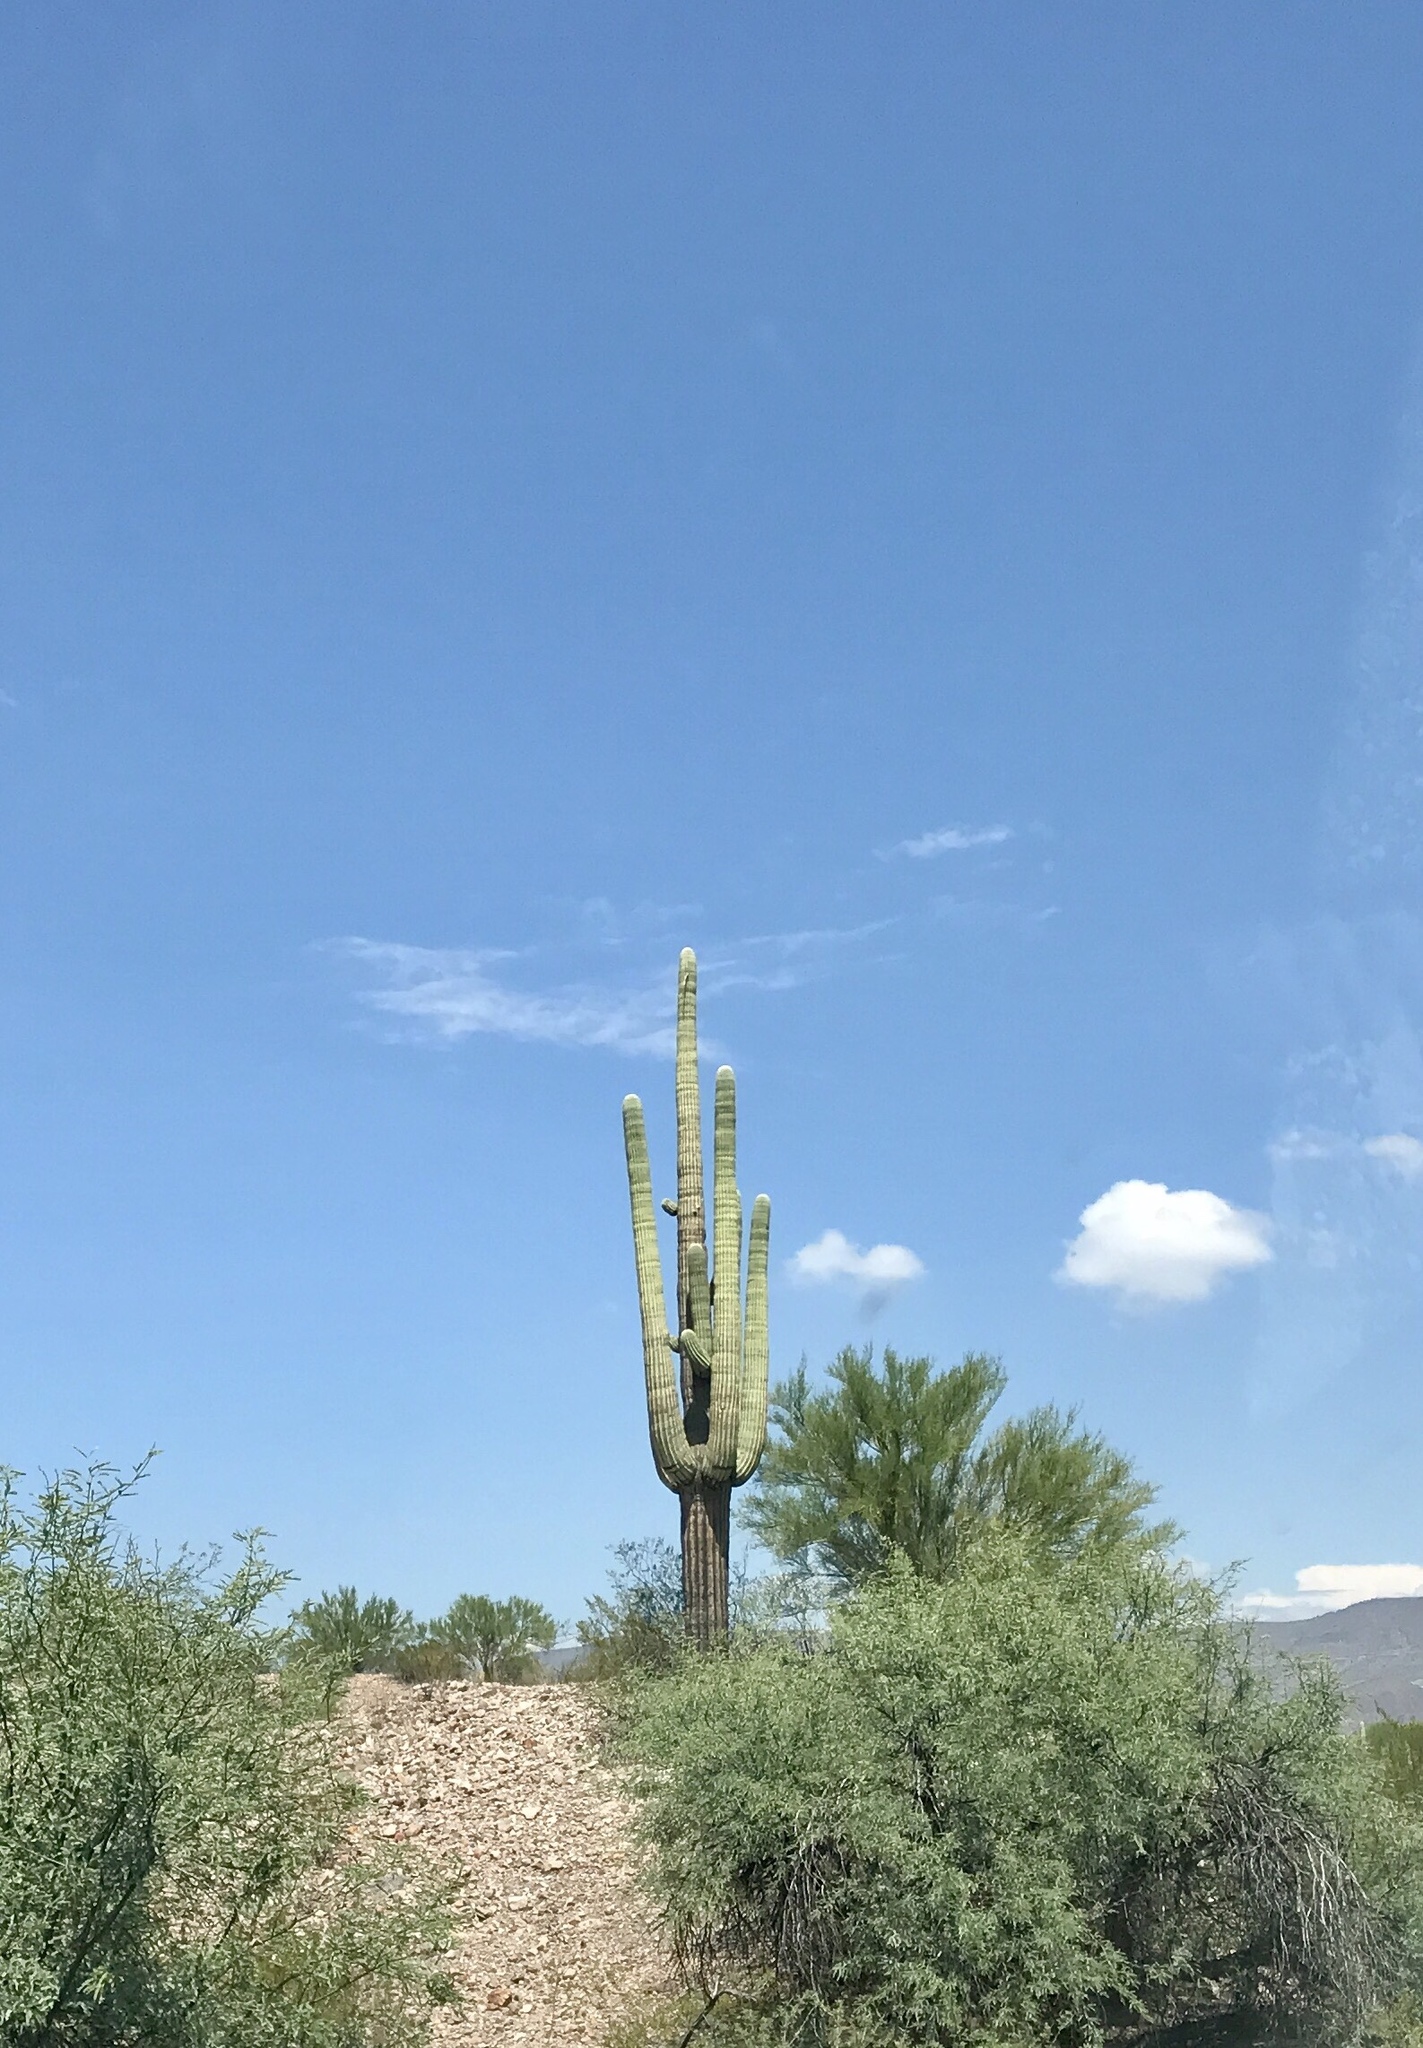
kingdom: Plantae
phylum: Tracheophyta
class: Magnoliopsida
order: Caryophyllales
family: Cactaceae
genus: Carnegiea
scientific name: Carnegiea gigantea
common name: Saguaro
